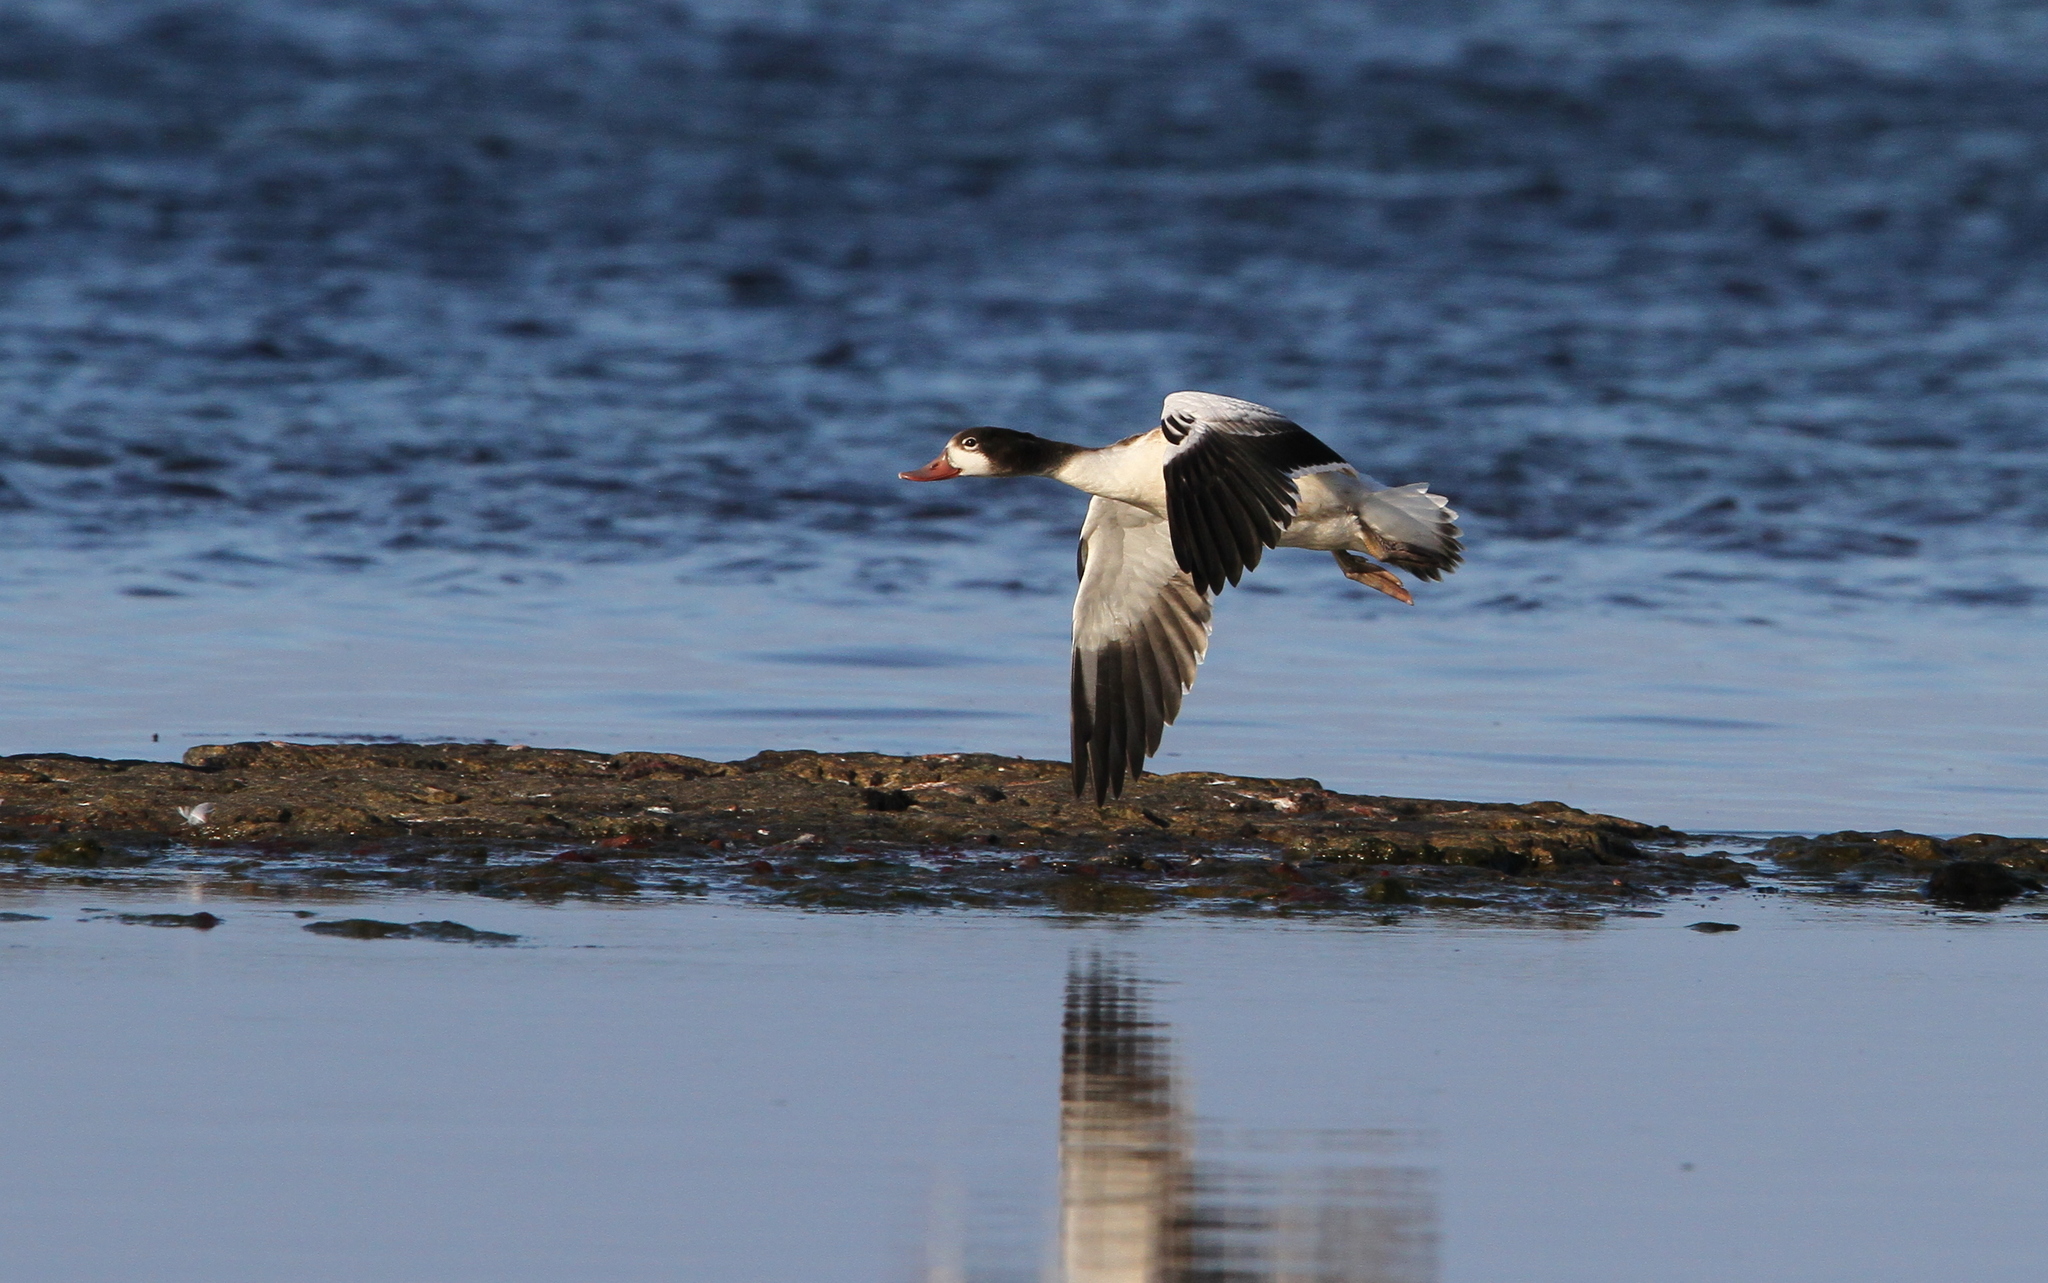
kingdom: Animalia
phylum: Chordata
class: Aves
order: Anseriformes
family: Anatidae
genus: Tadorna
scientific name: Tadorna tadorna
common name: Common shelduck
